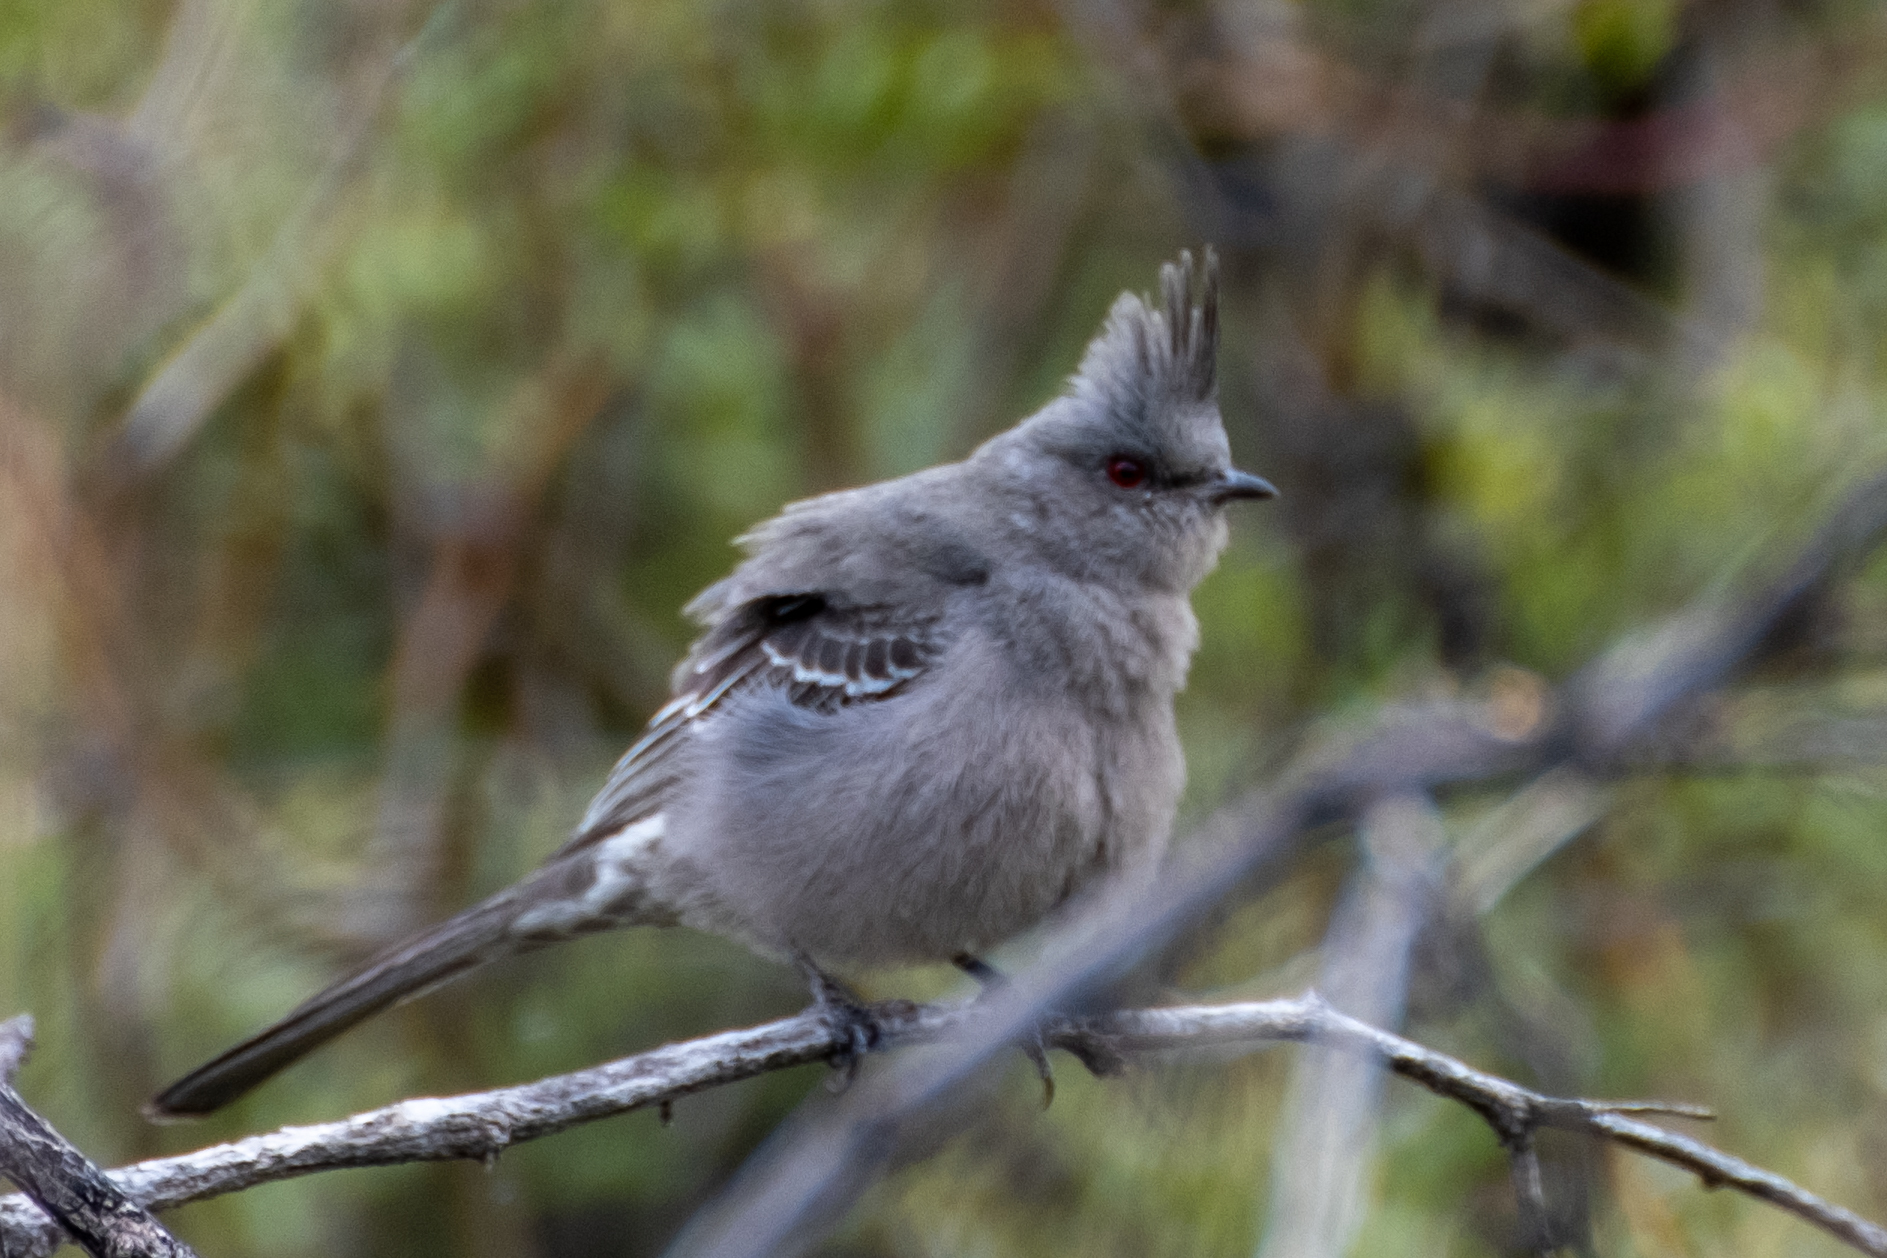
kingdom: Animalia
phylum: Chordata
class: Aves
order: Passeriformes
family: Ptilogonatidae
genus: Phainopepla
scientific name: Phainopepla nitens
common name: Phainopepla
